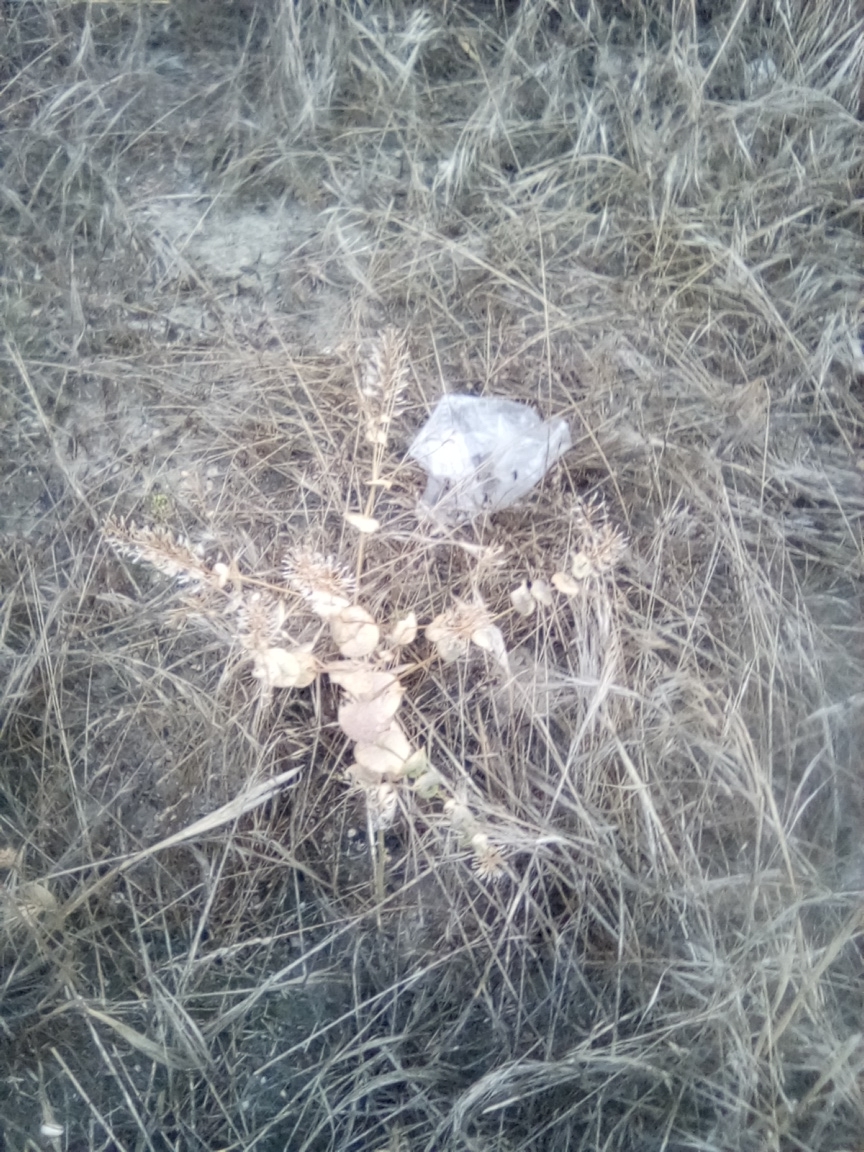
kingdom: Plantae
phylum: Tracheophyta
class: Magnoliopsida
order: Brassicales
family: Brassicaceae
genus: Lepidium
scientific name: Lepidium perfoliatum
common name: Perfoliate pepperwort
